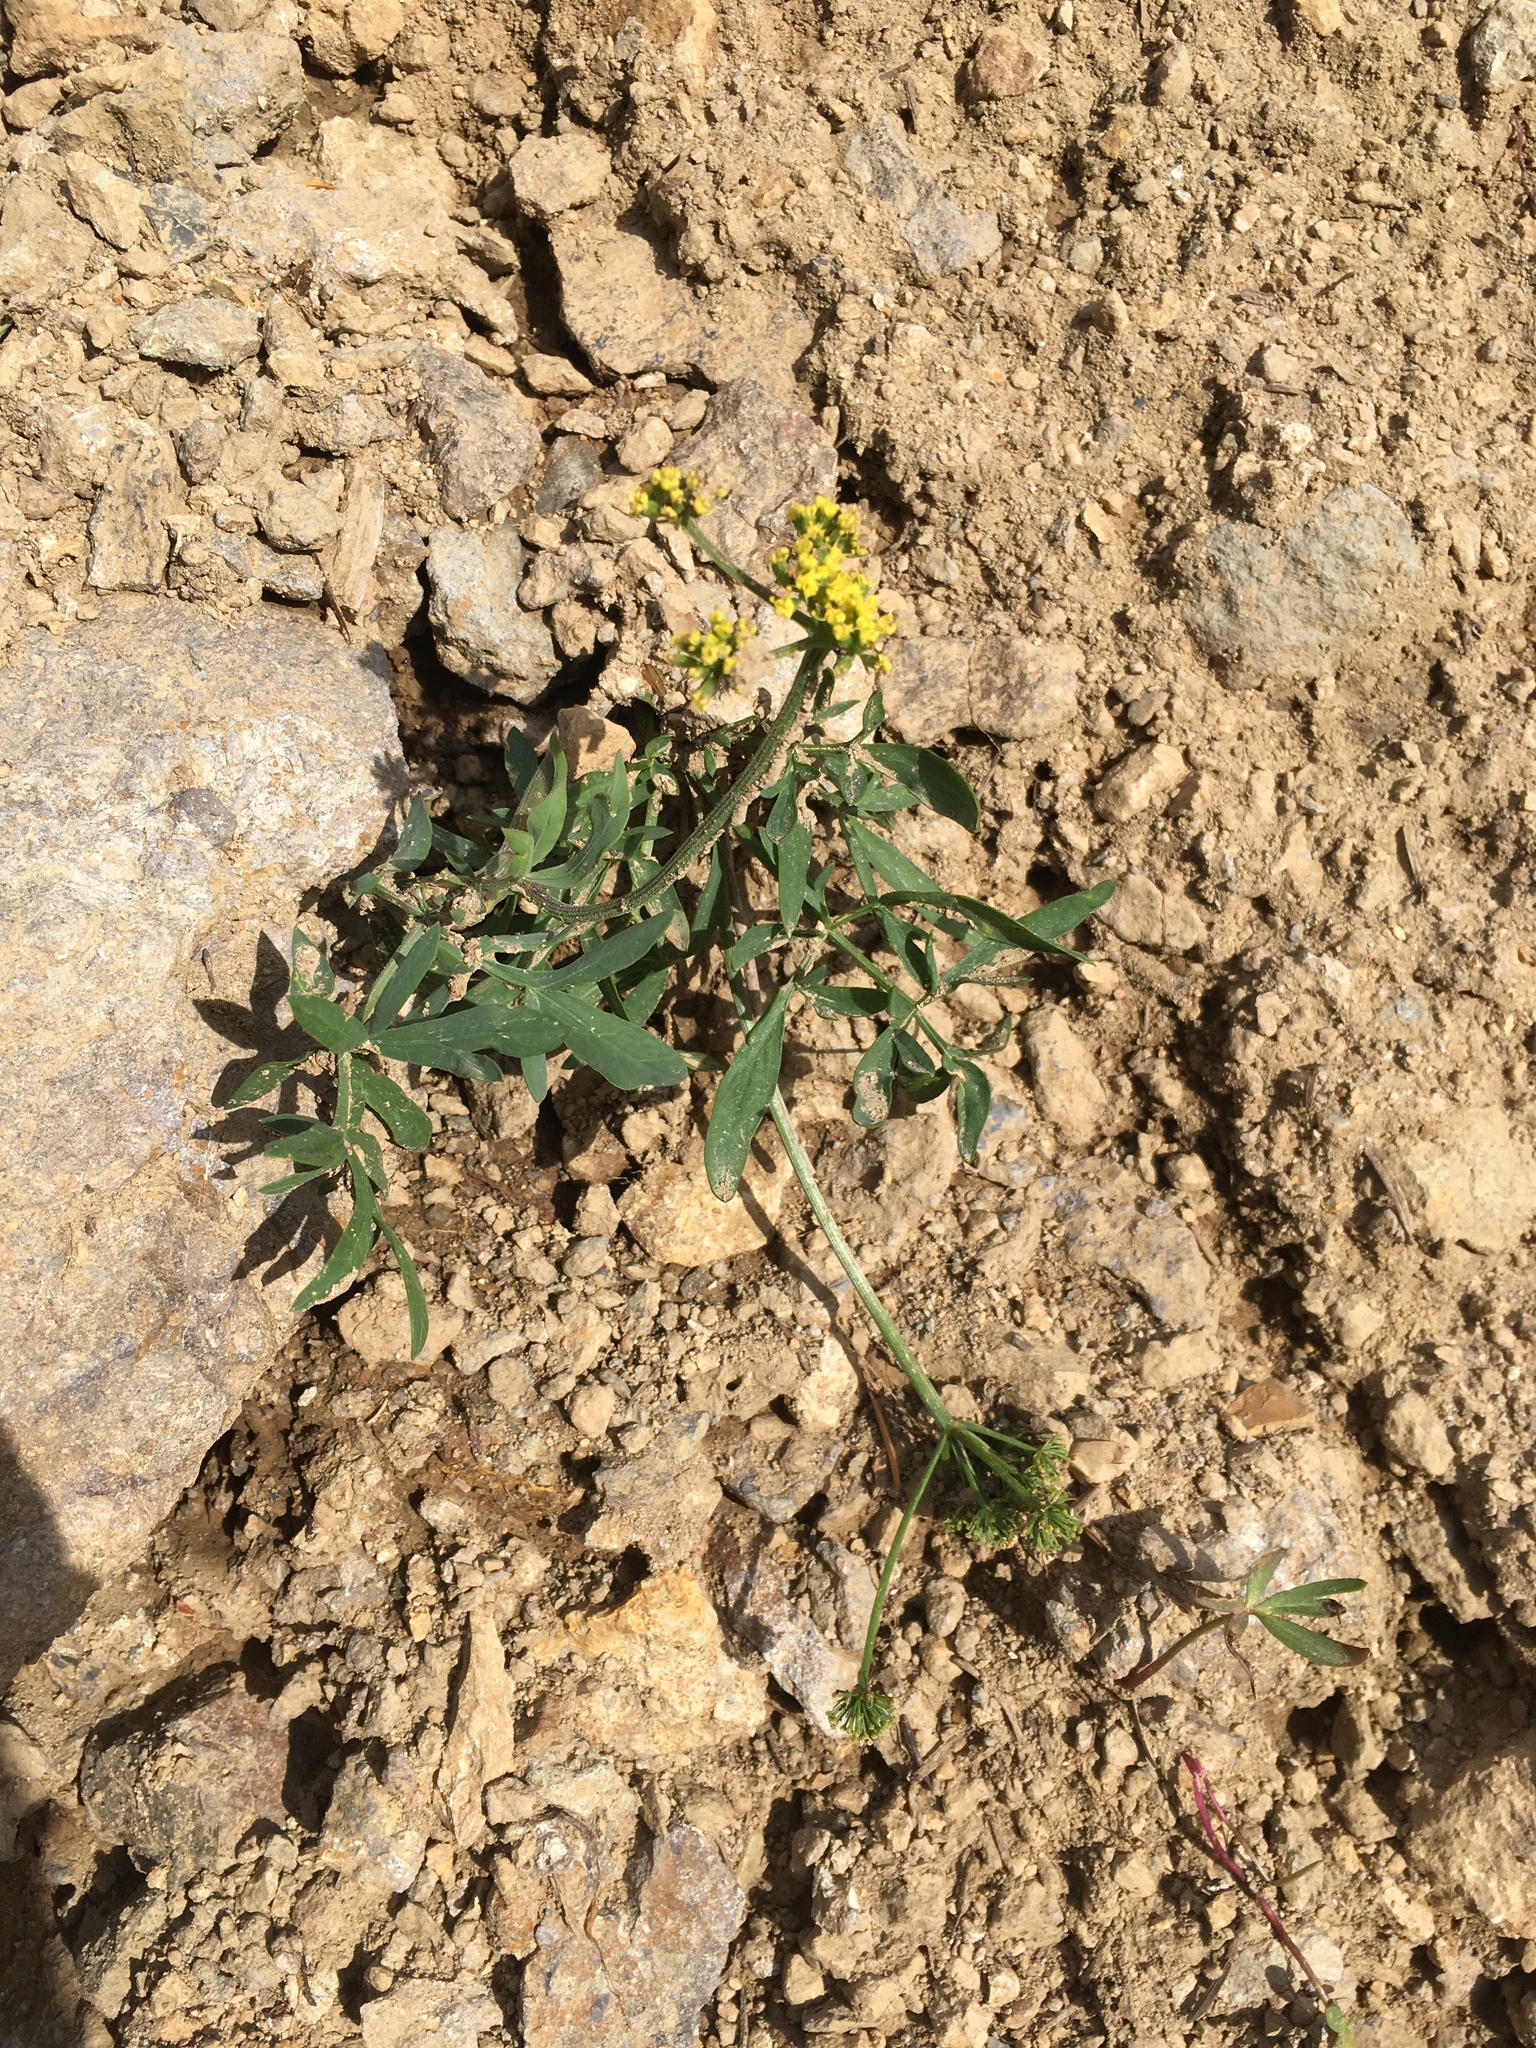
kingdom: Plantae
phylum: Tracheophyta
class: Magnoliopsida
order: Apiales
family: Apiaceae
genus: Lomatium
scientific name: Lomatium triternatum
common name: Ternate lomatium
